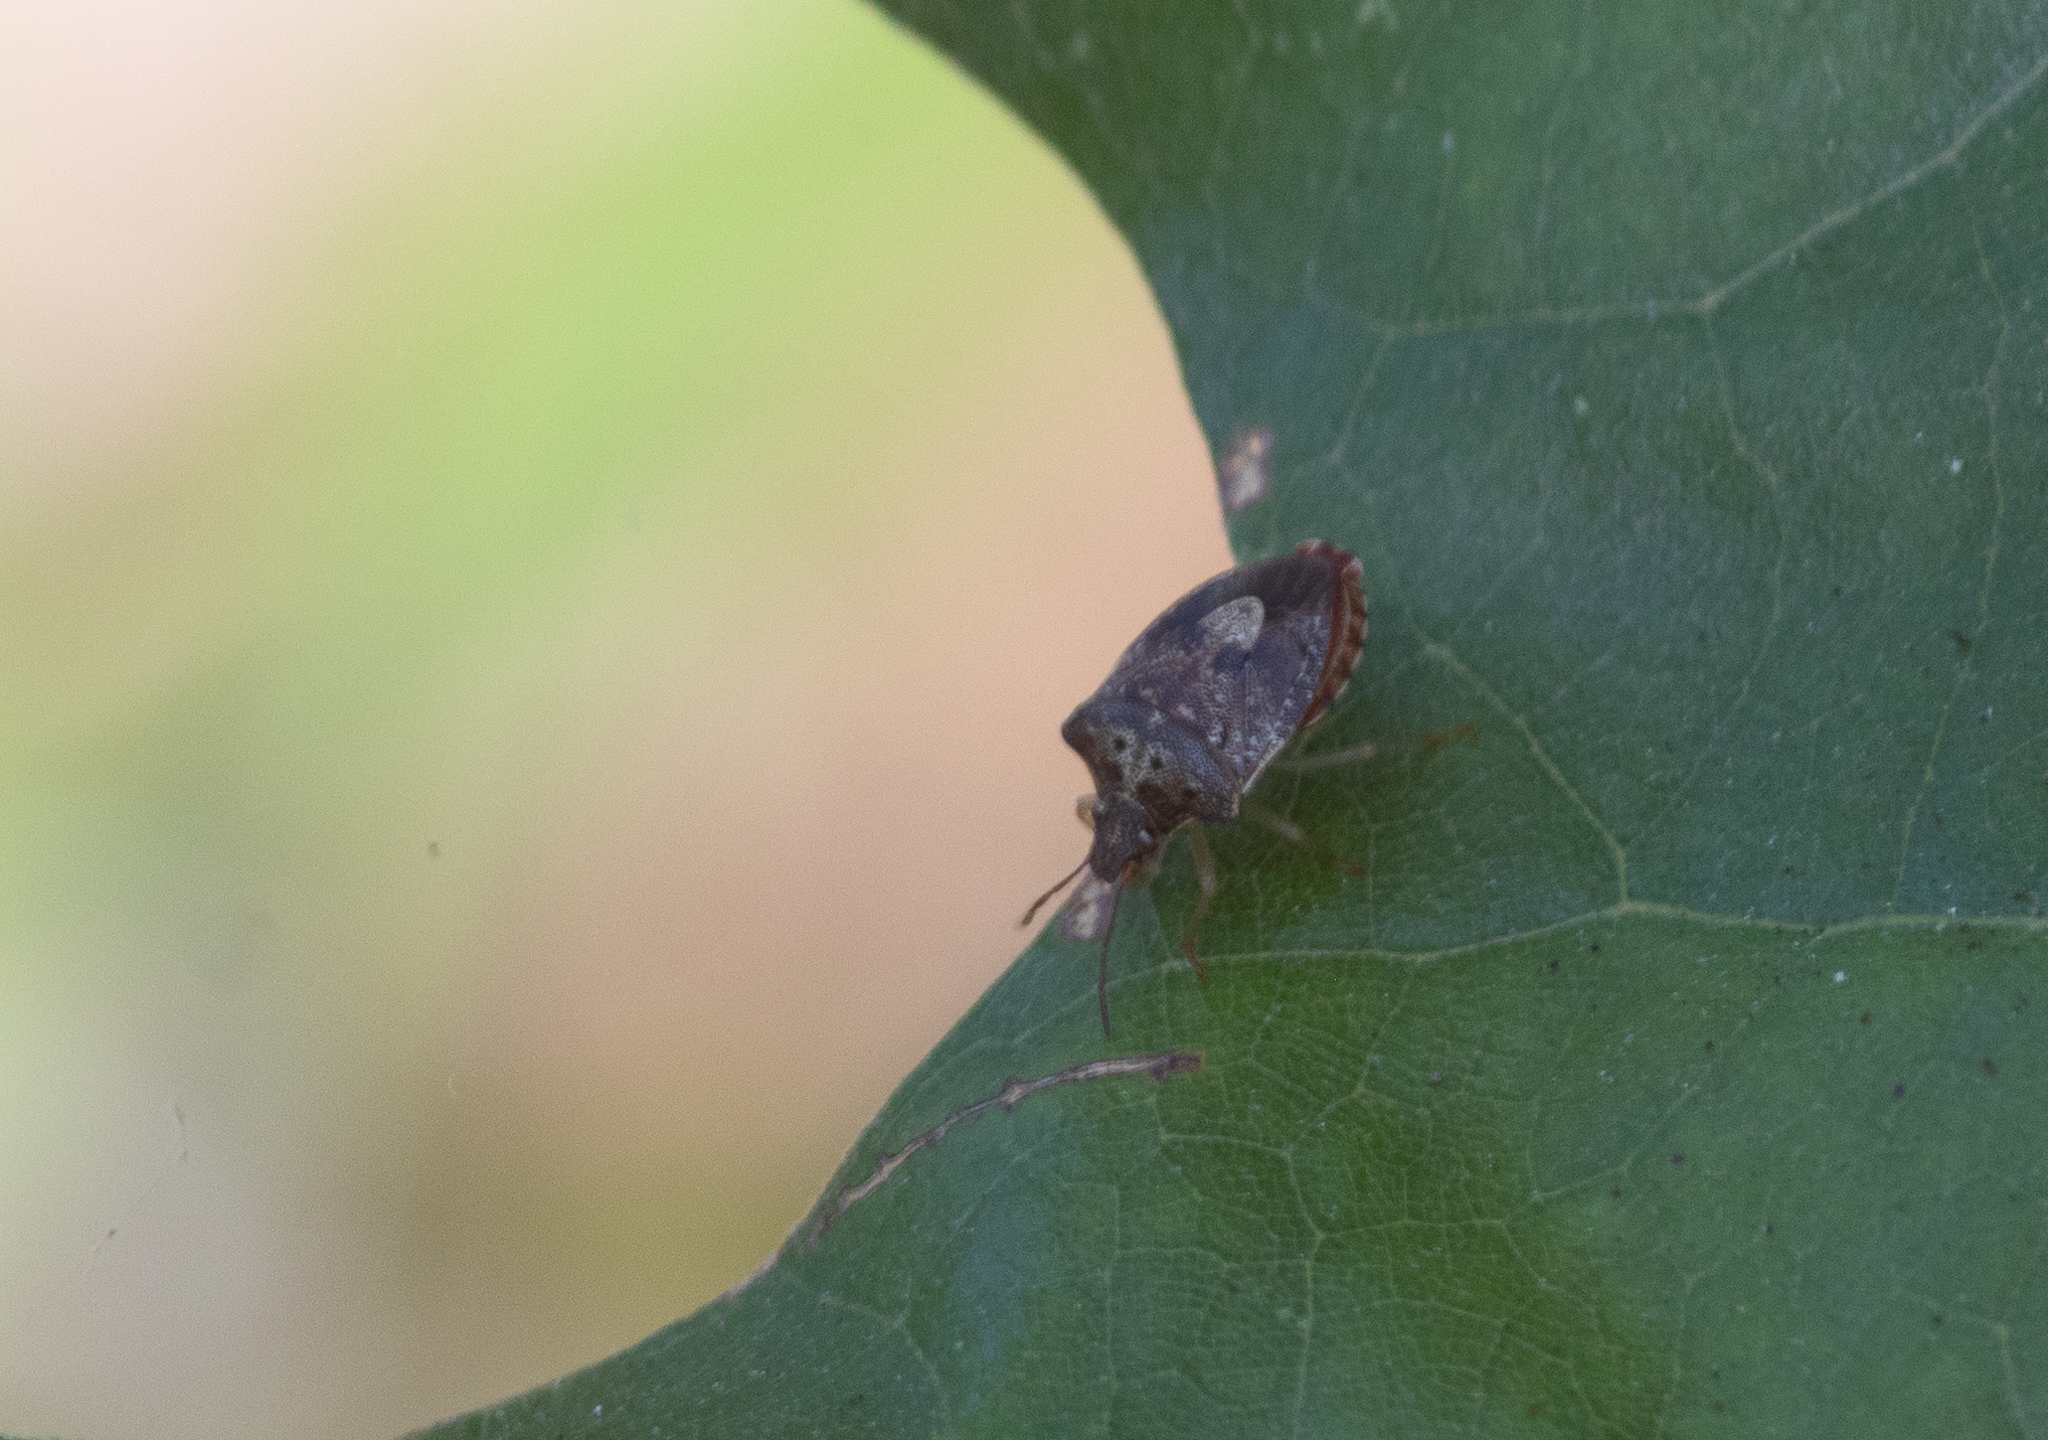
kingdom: Animalia
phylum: Arthropoda
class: Insecta
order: Hemiptera
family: Pentatomidae
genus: Dendrocoris
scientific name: Dendrocoris humeralis
